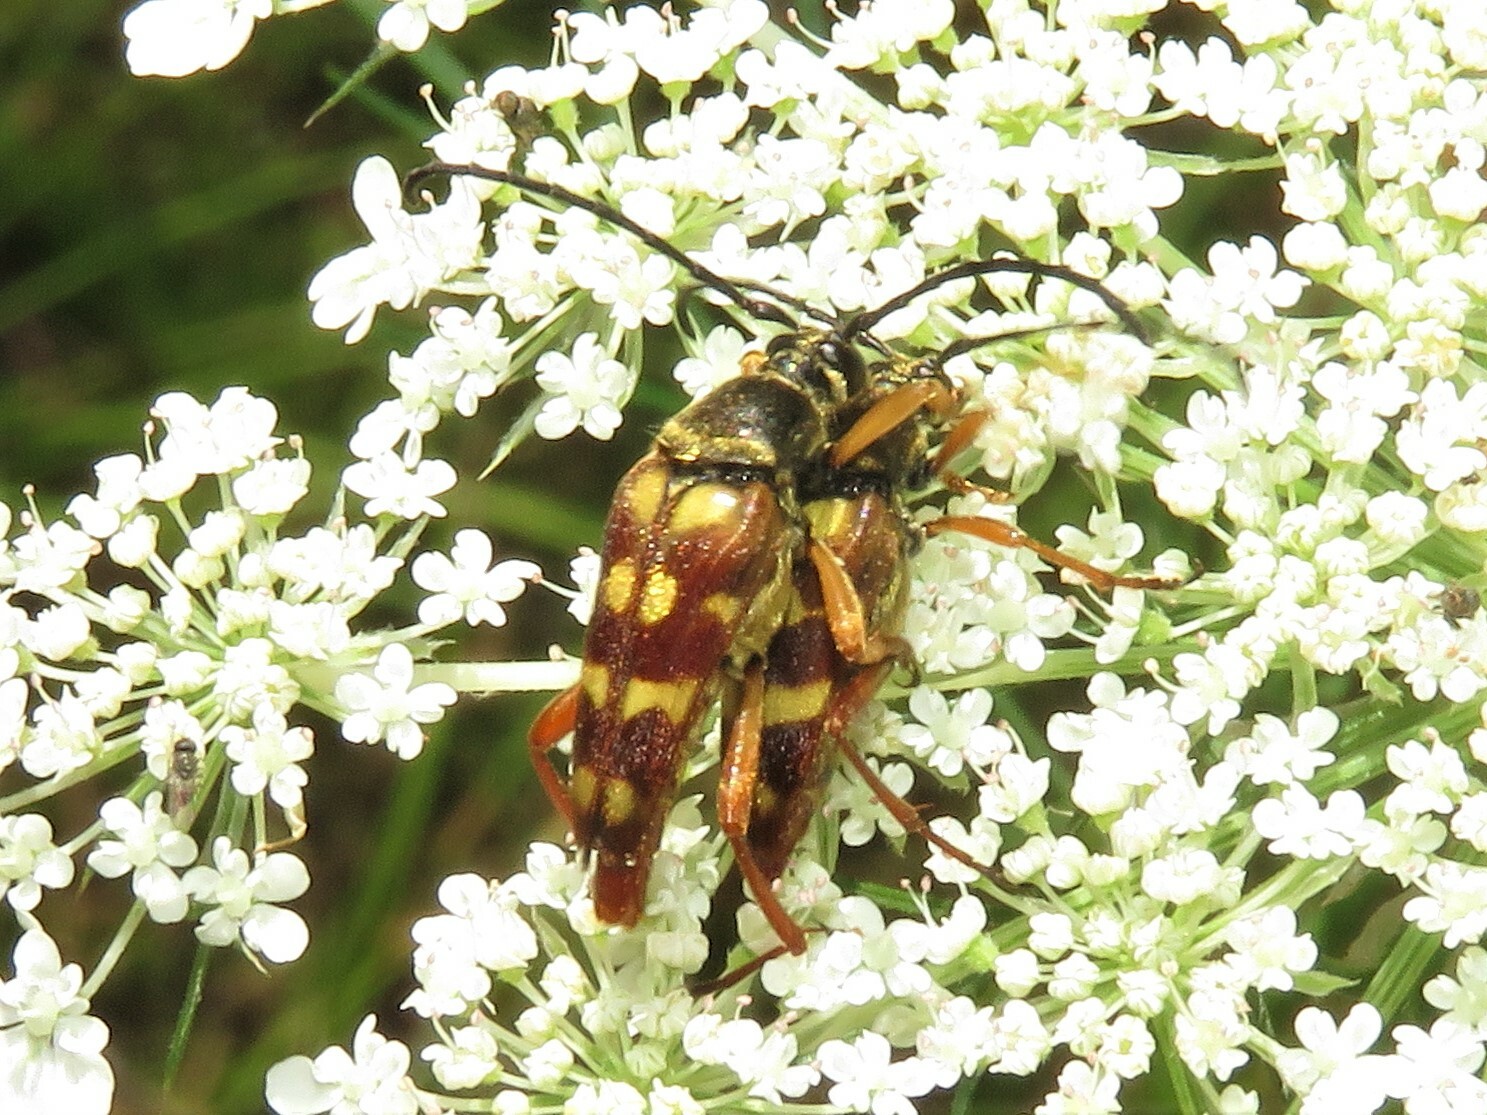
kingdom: Animalia
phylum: Arthropoda
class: Insecta
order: Coleoptera
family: Cerambycidae
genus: Typocerus
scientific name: Typocerus velutinus
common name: Banded longhorn beetle
